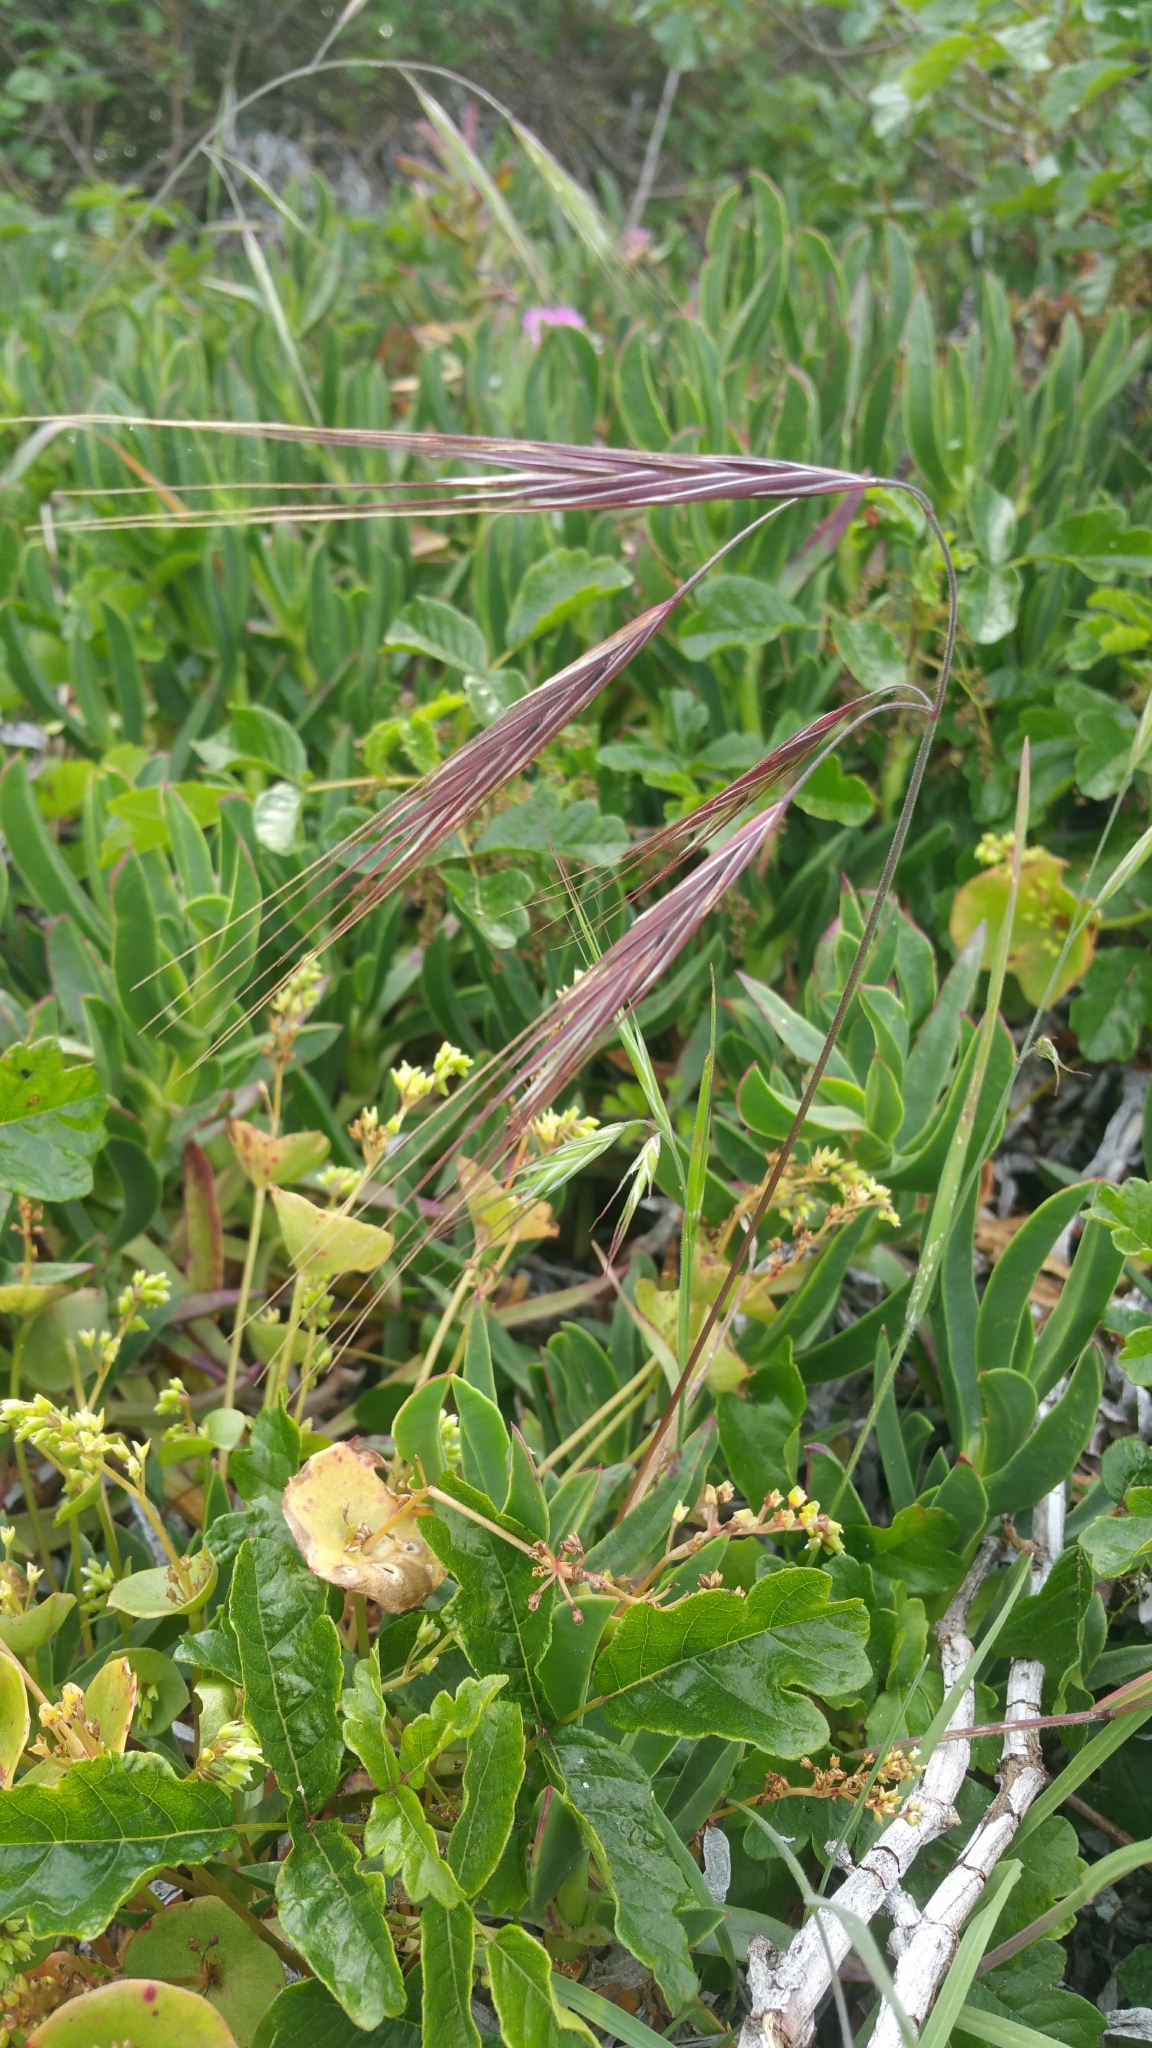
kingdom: Plantae
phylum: Tracheophyta
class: Liliopsida
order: Poales
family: Poaceae
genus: Bromus
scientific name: Bromus diandrus
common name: Ripgut brome
